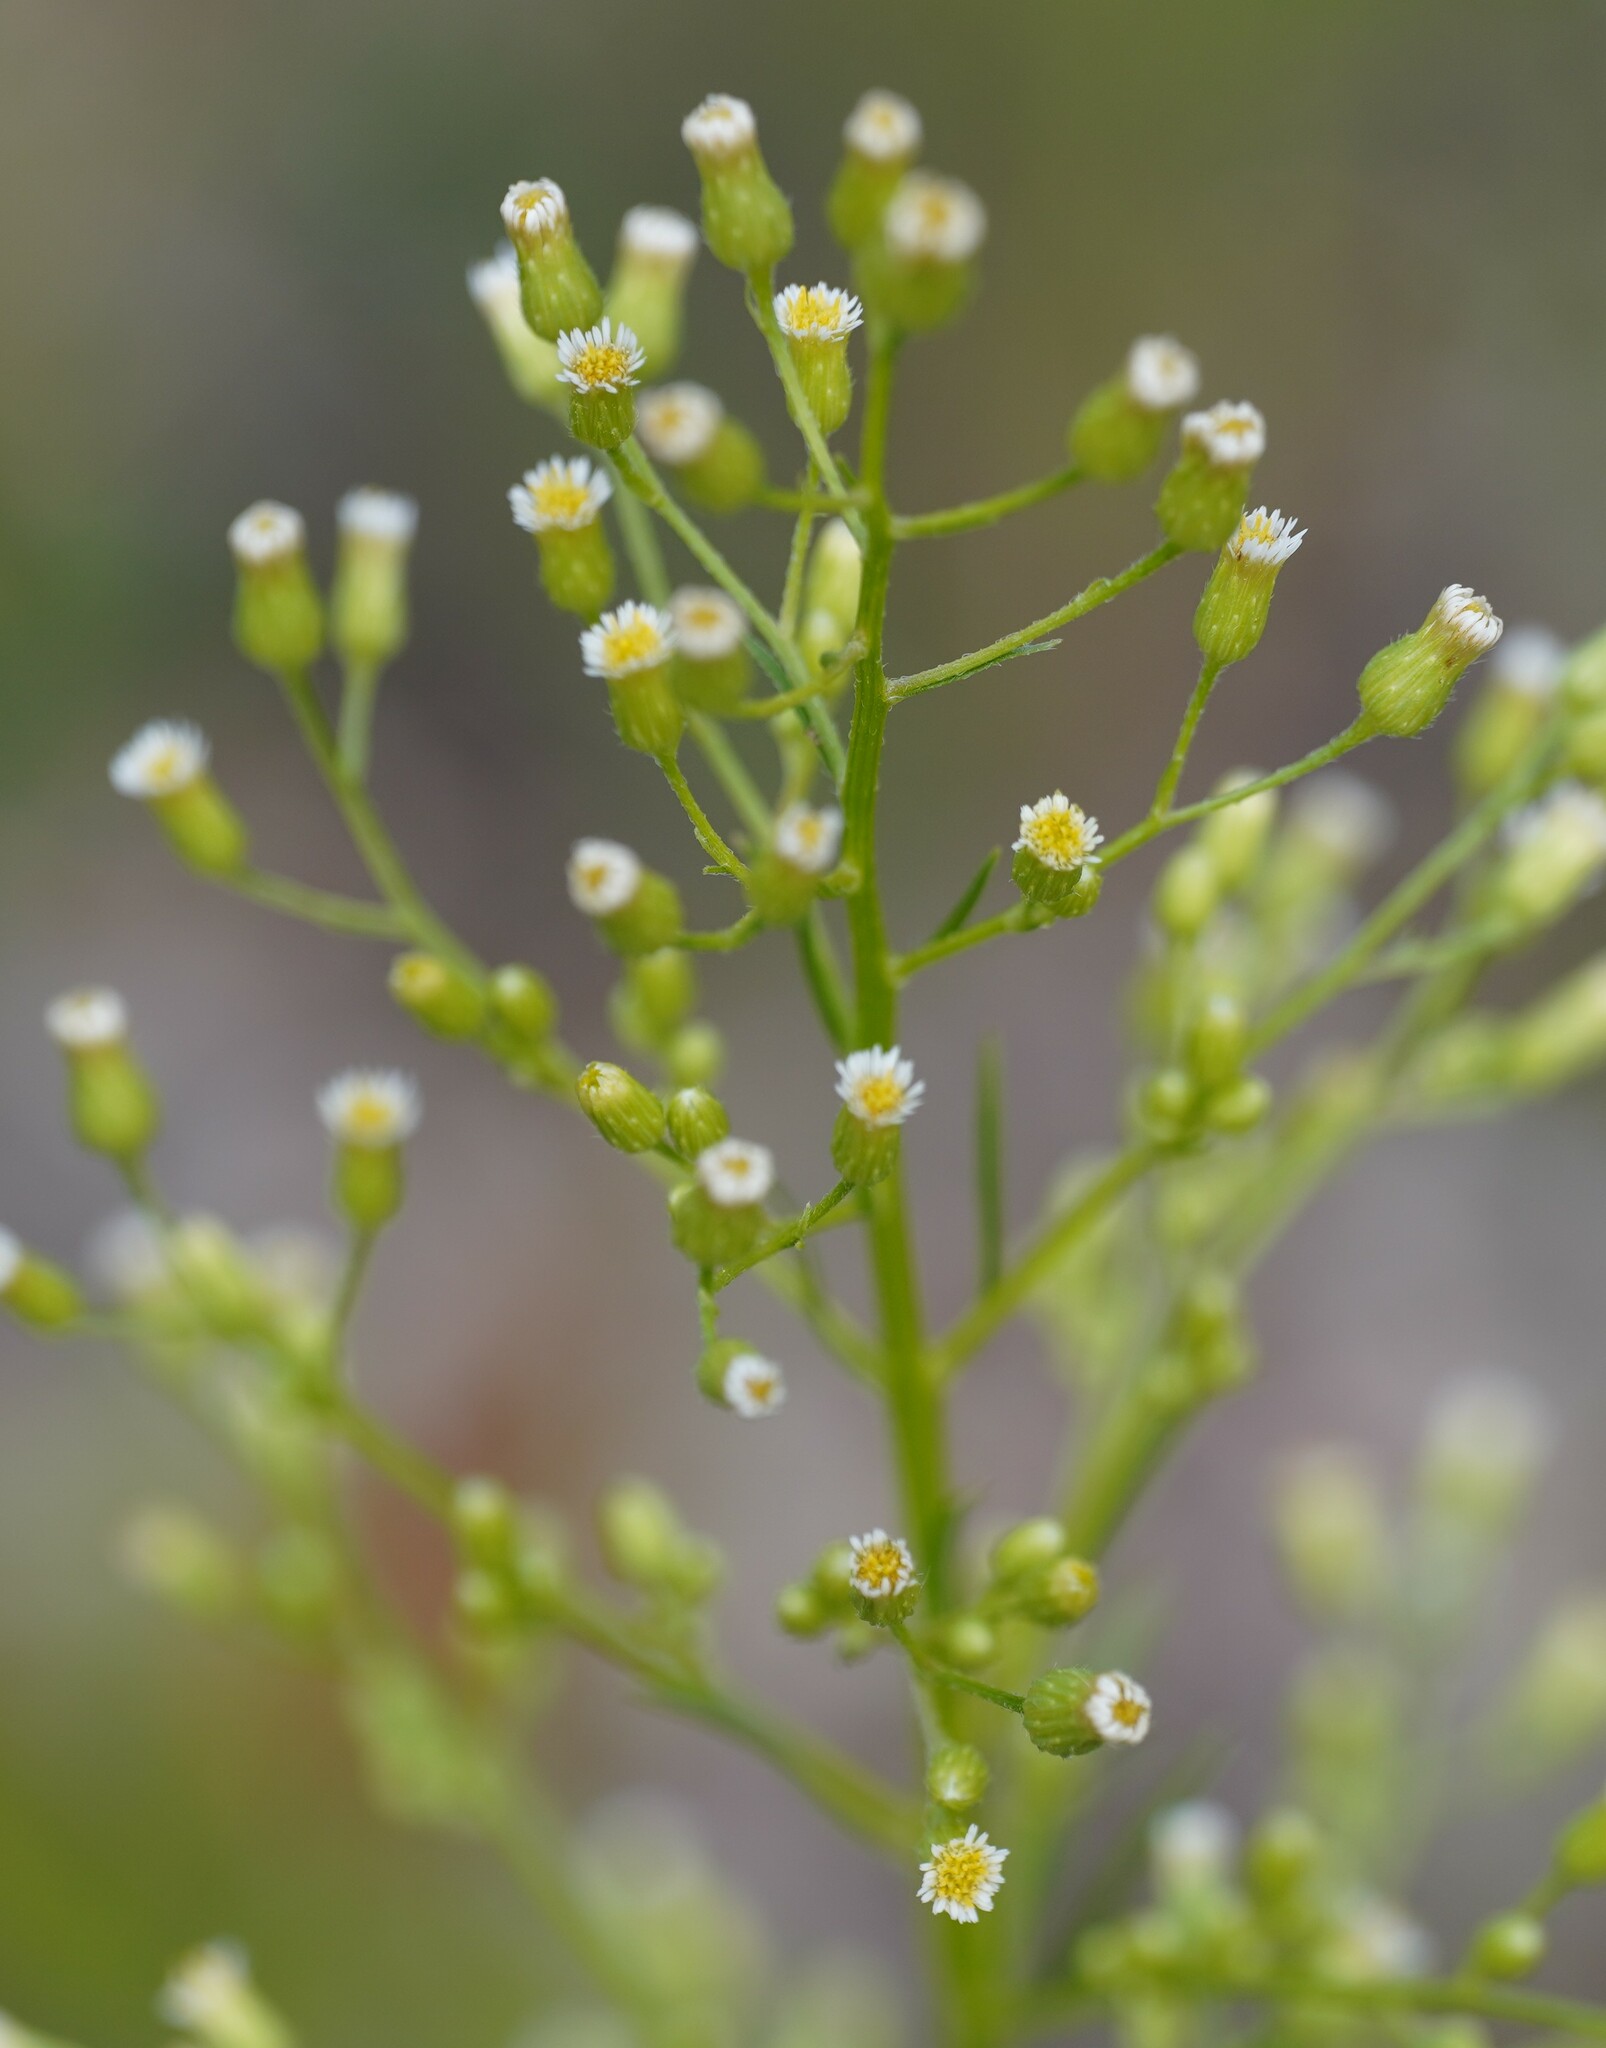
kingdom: Plantae
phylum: Tracheophyta
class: Magnoliopsida
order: Asterales
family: Asteraceae
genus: Erigeron
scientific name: Erigeron canadensis
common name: Canadian fleabane
